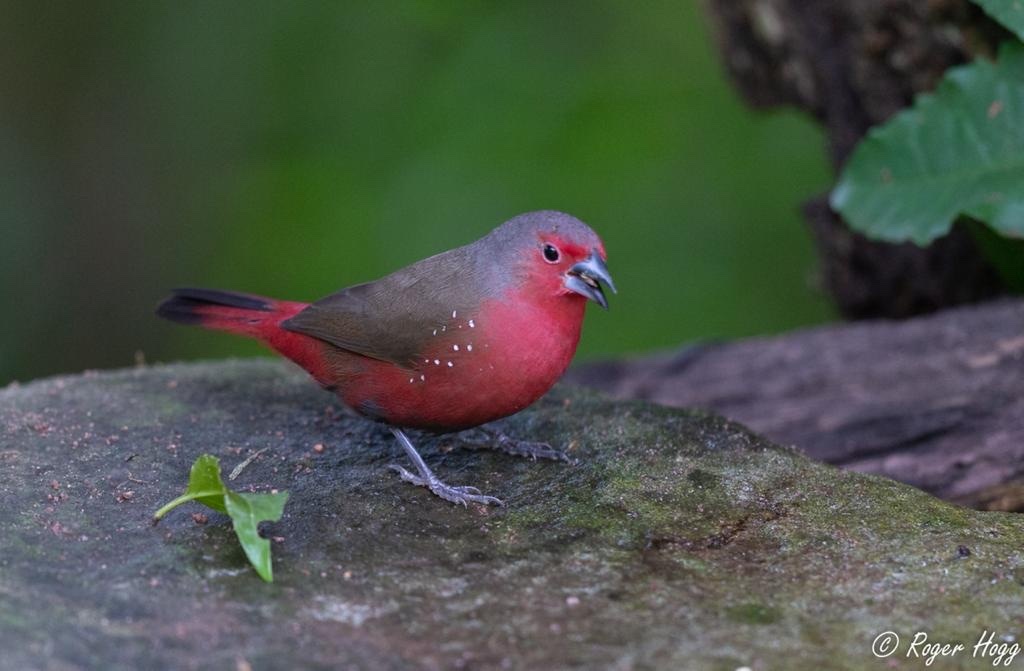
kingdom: Animalia
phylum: Chordata
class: Aves
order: Passeriformes
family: Estrildidae
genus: Lagonosticta
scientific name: Lagonosticta rubricata
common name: African firefinch
